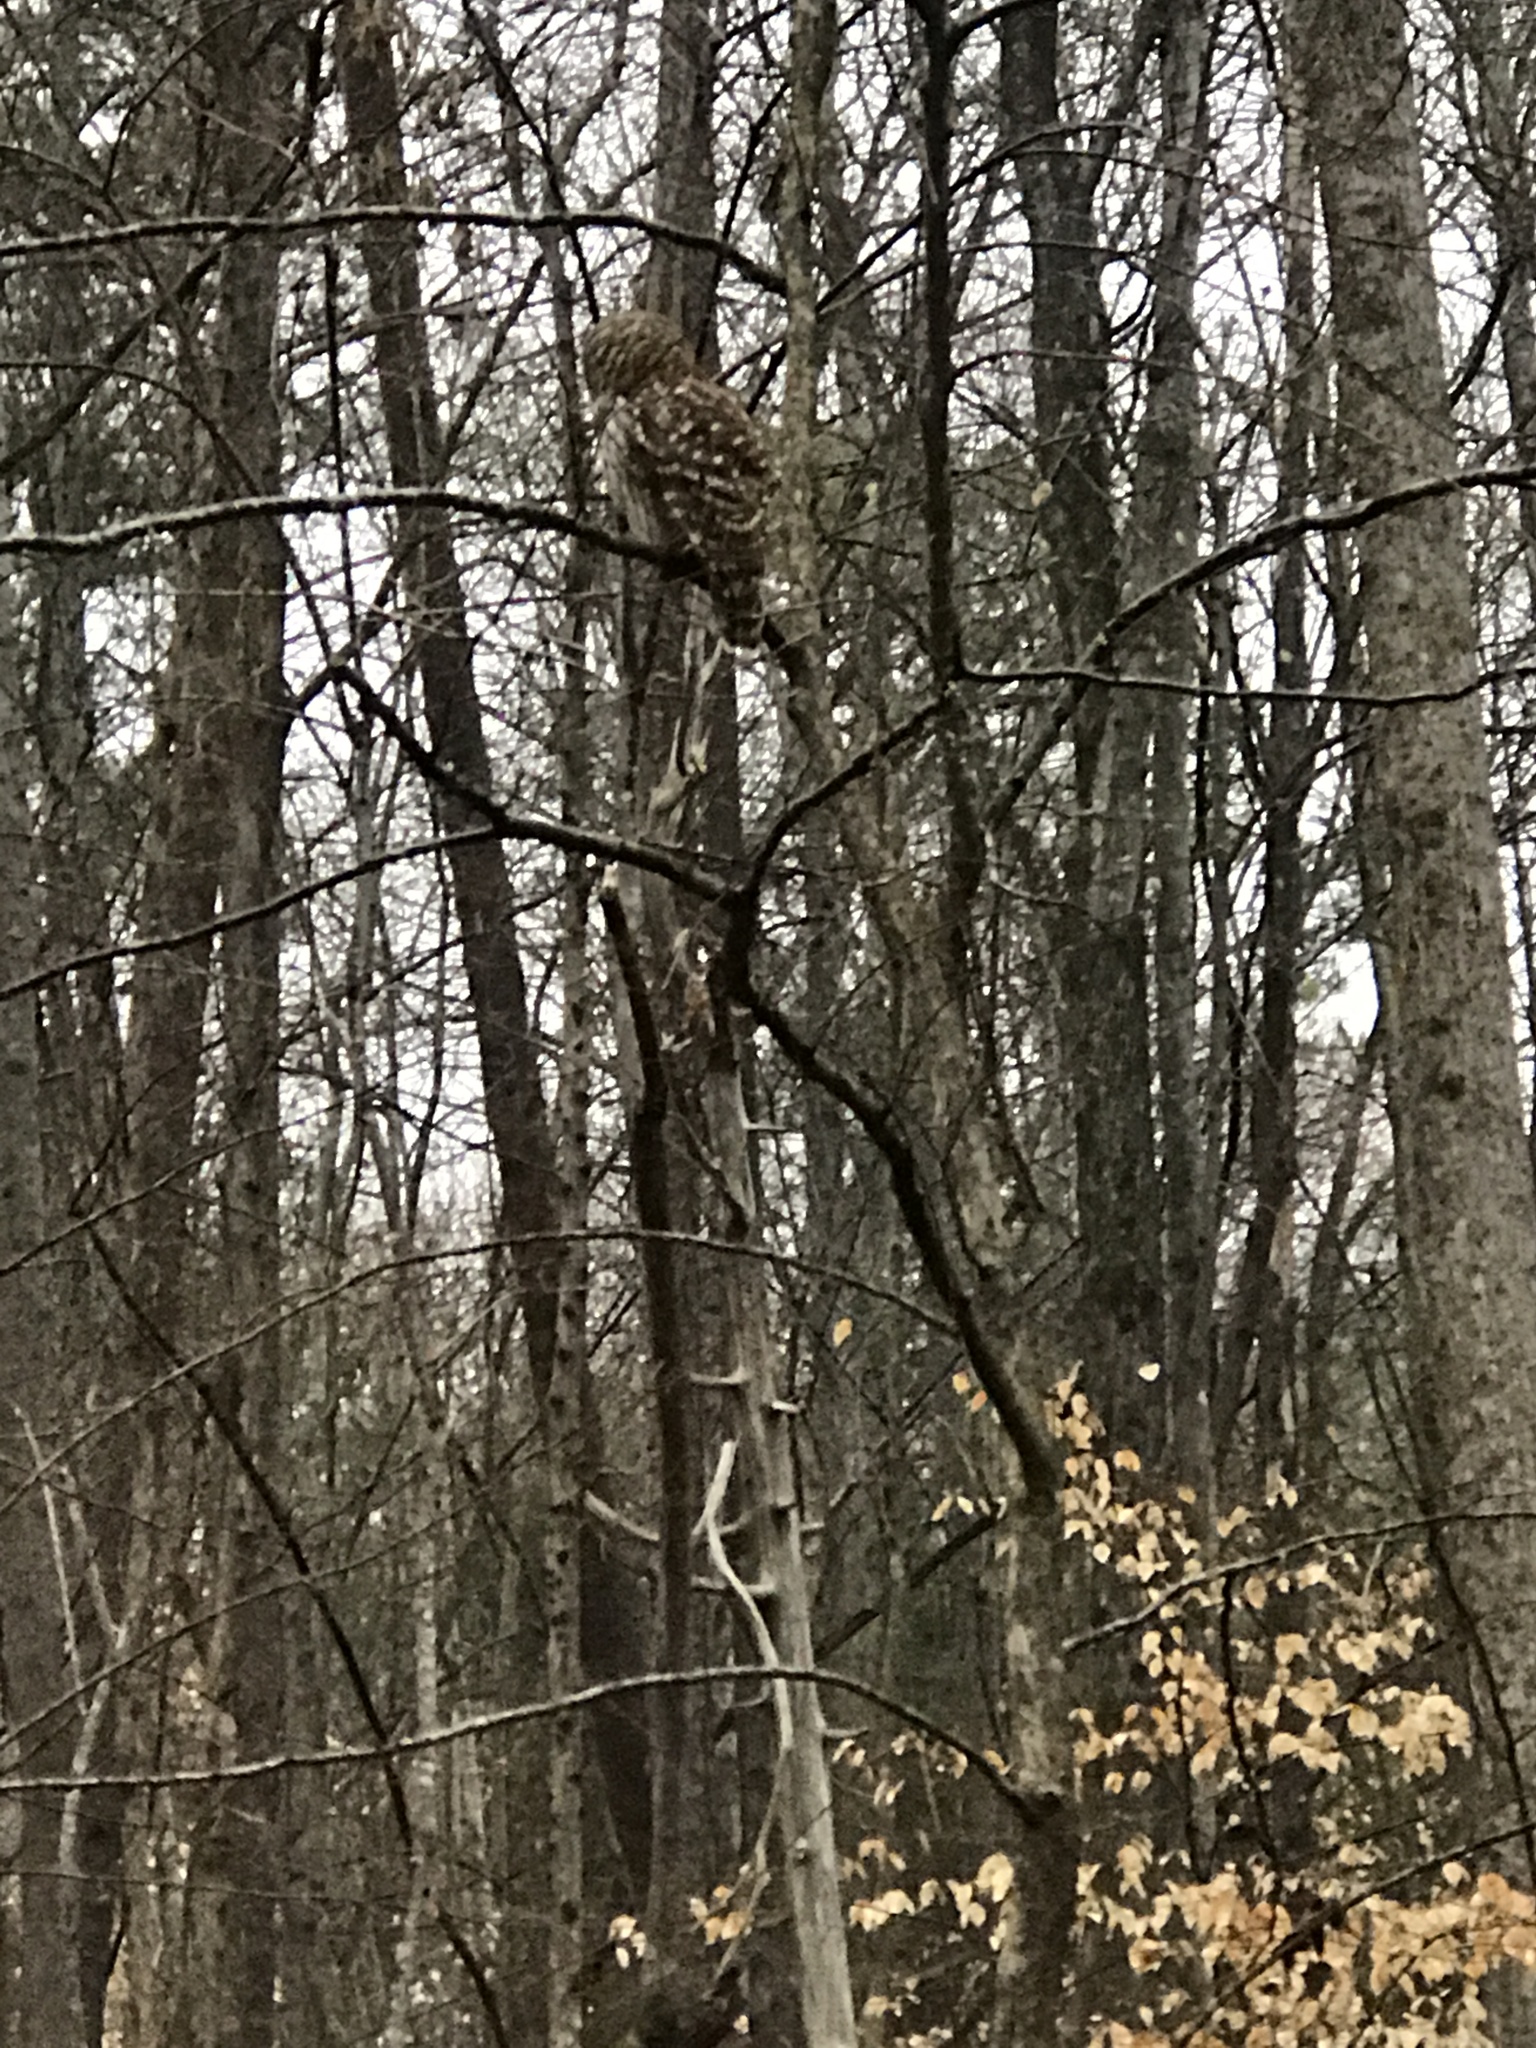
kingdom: Animalia
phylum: Chordata
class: Aves
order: Strigiformes
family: Strigidae
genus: Strix
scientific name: Strix varia
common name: Barred owl
